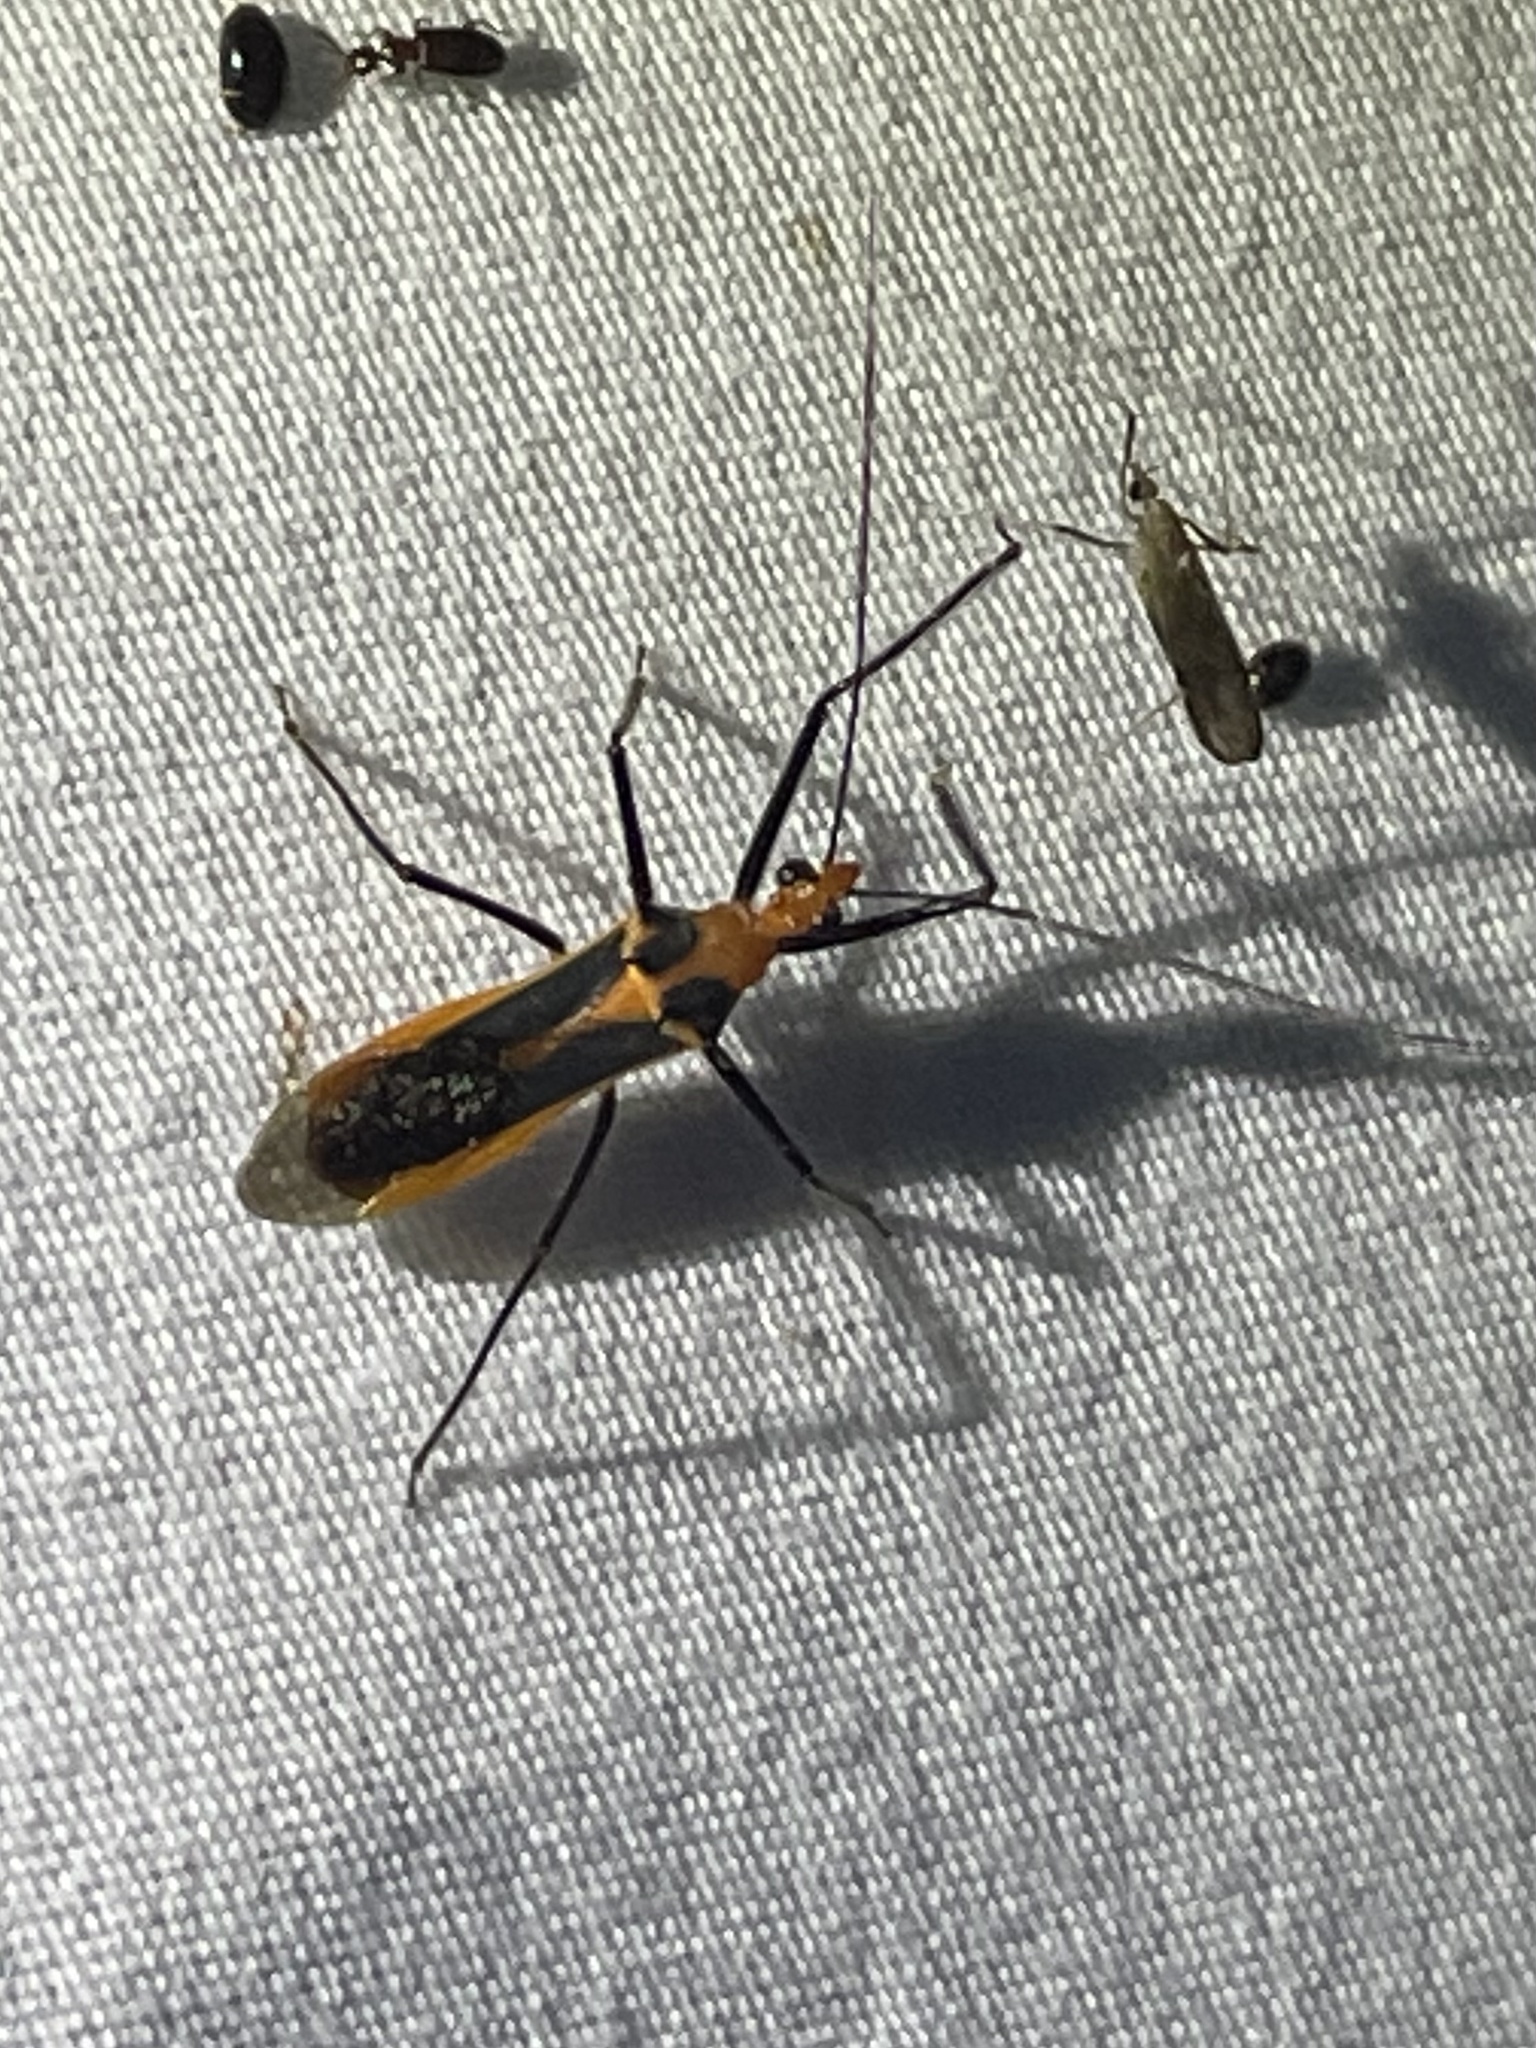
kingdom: Animalia
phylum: Arthropoda
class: Insecta
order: Hemiptera
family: Reduviidae
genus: Repipta
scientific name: Repipta taurus
